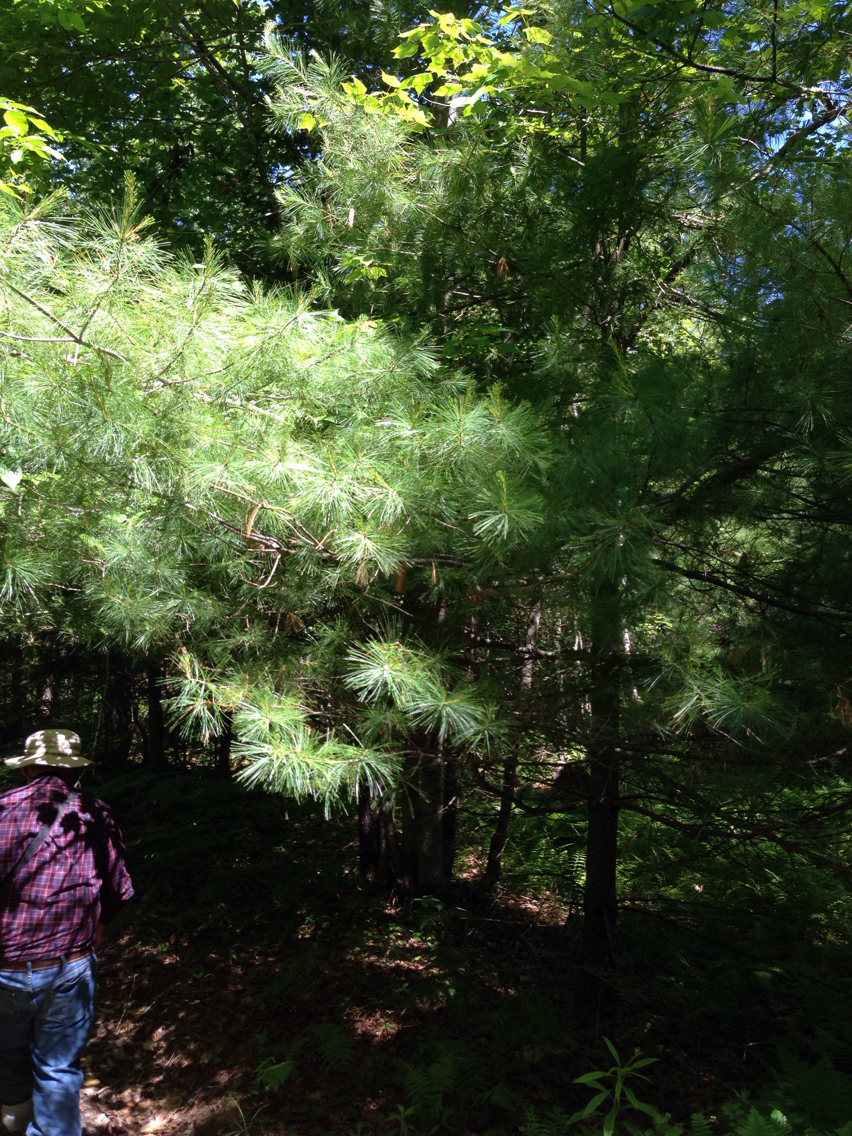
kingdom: Plantae
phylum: Tracheophyta
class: Pinopsida
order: Pinales
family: Pinaceae
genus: Pinus
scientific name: Pinus strobus
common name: Weymouth pine
